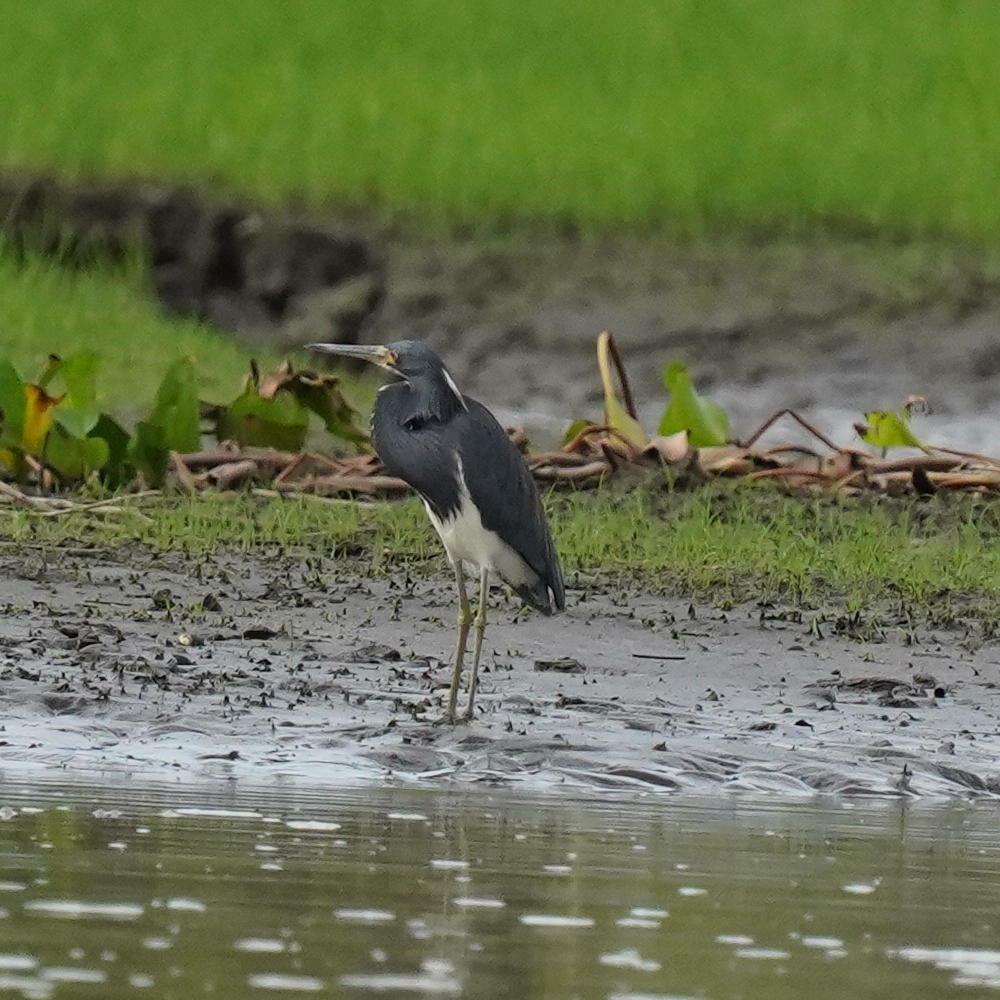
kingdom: Animalia
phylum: Chordata
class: Aves
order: Pelecaniformes
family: Ardeidae
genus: Egretta
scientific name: Egretta tricolor
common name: Tricolored heron
